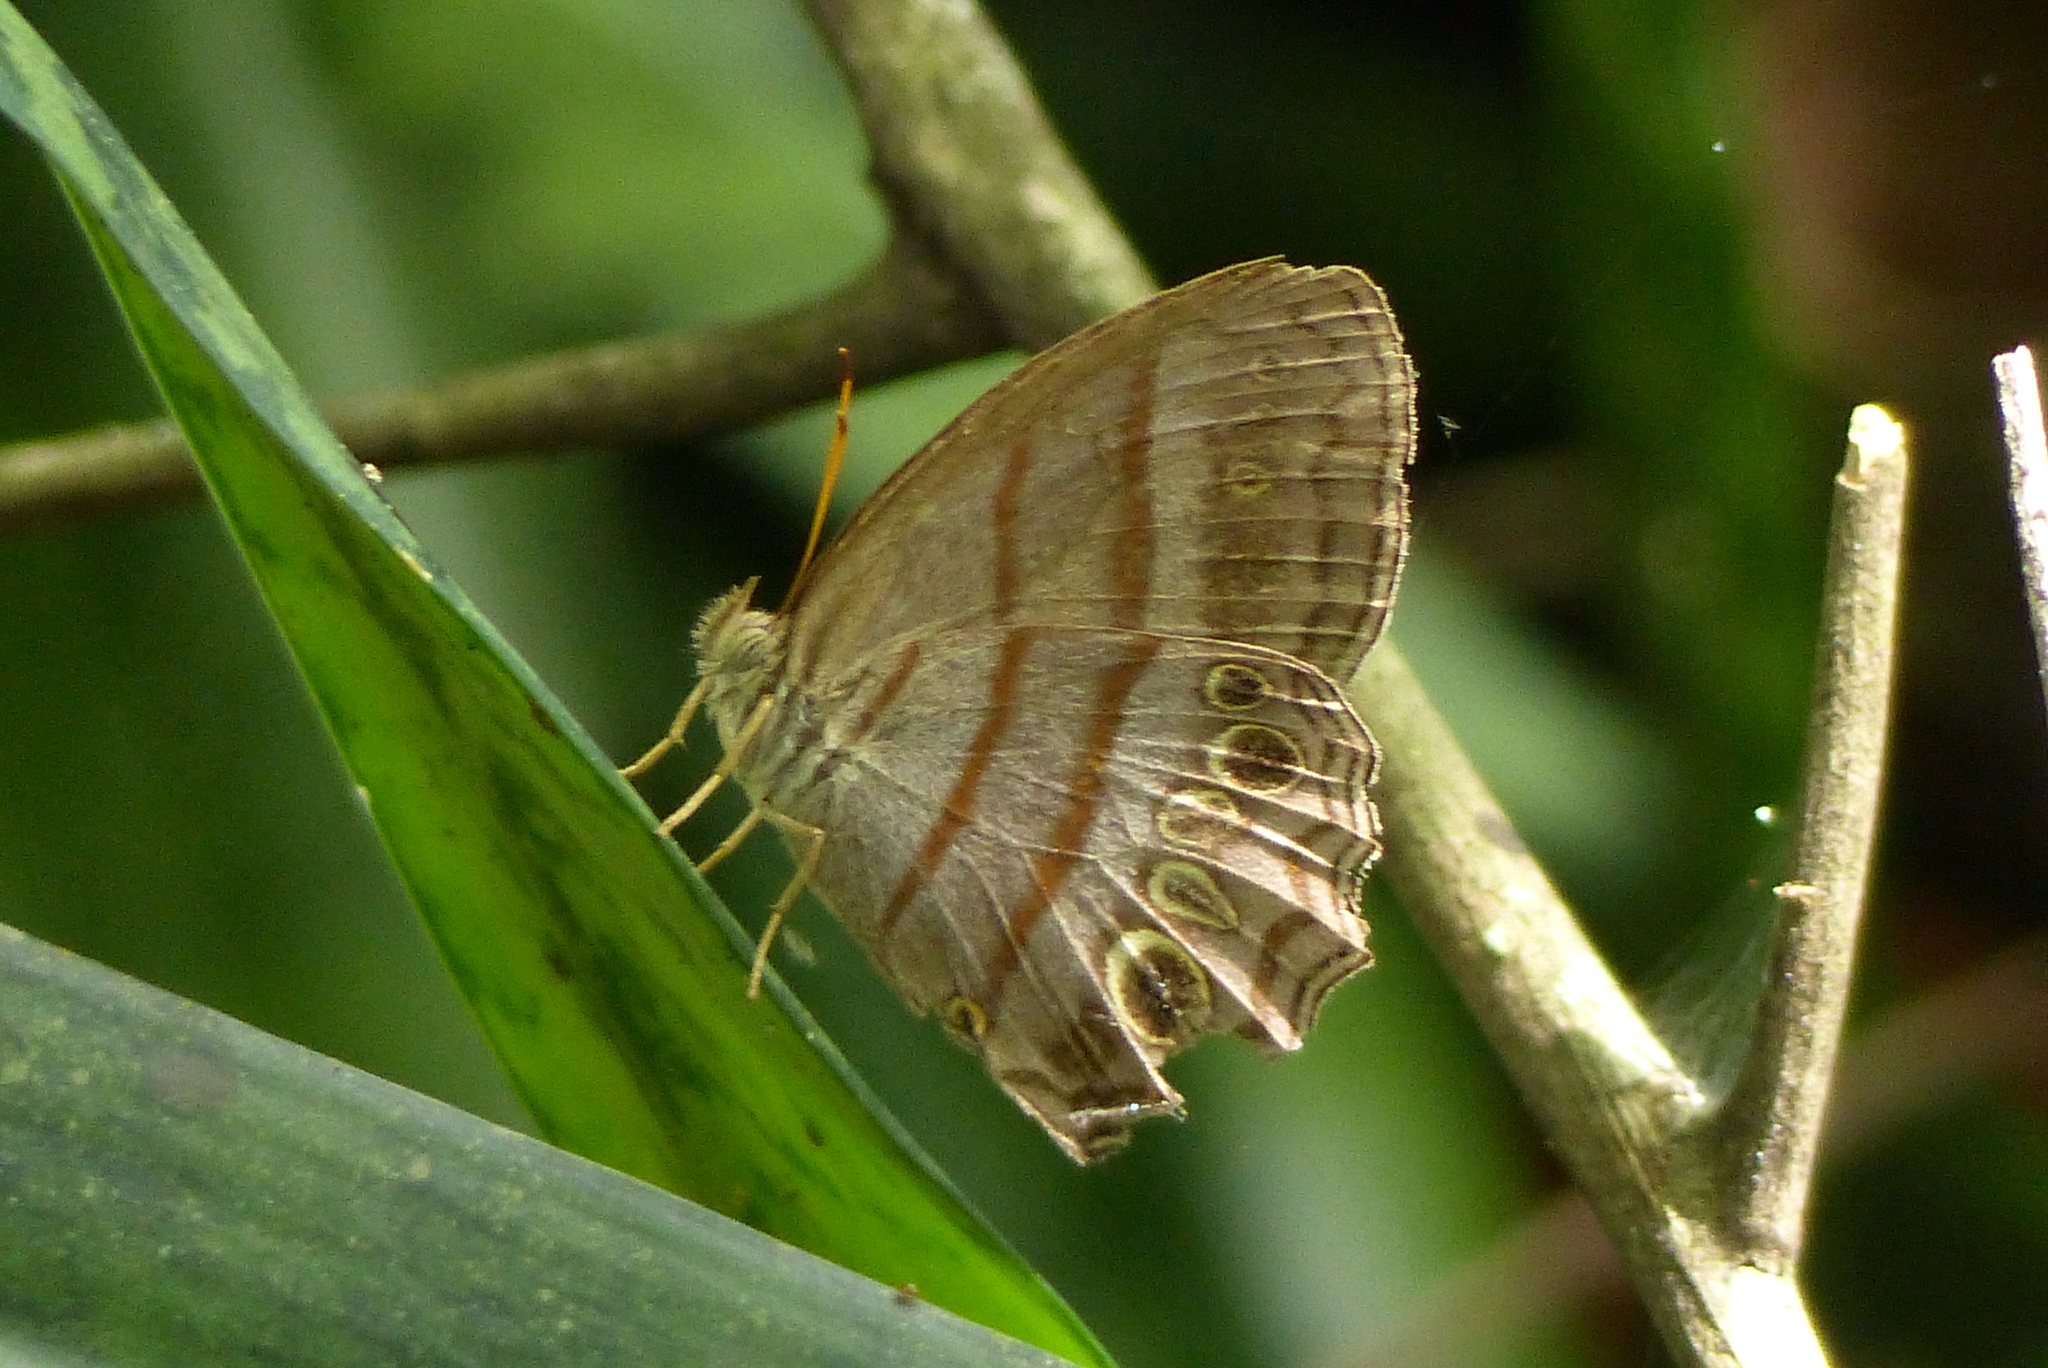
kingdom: Animalia
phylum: Arthropoda
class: Insecta
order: Lepidoptera
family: Nymphalidae
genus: Magneuptychia
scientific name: Magneuptychia libye
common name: Blue-gray satyr
